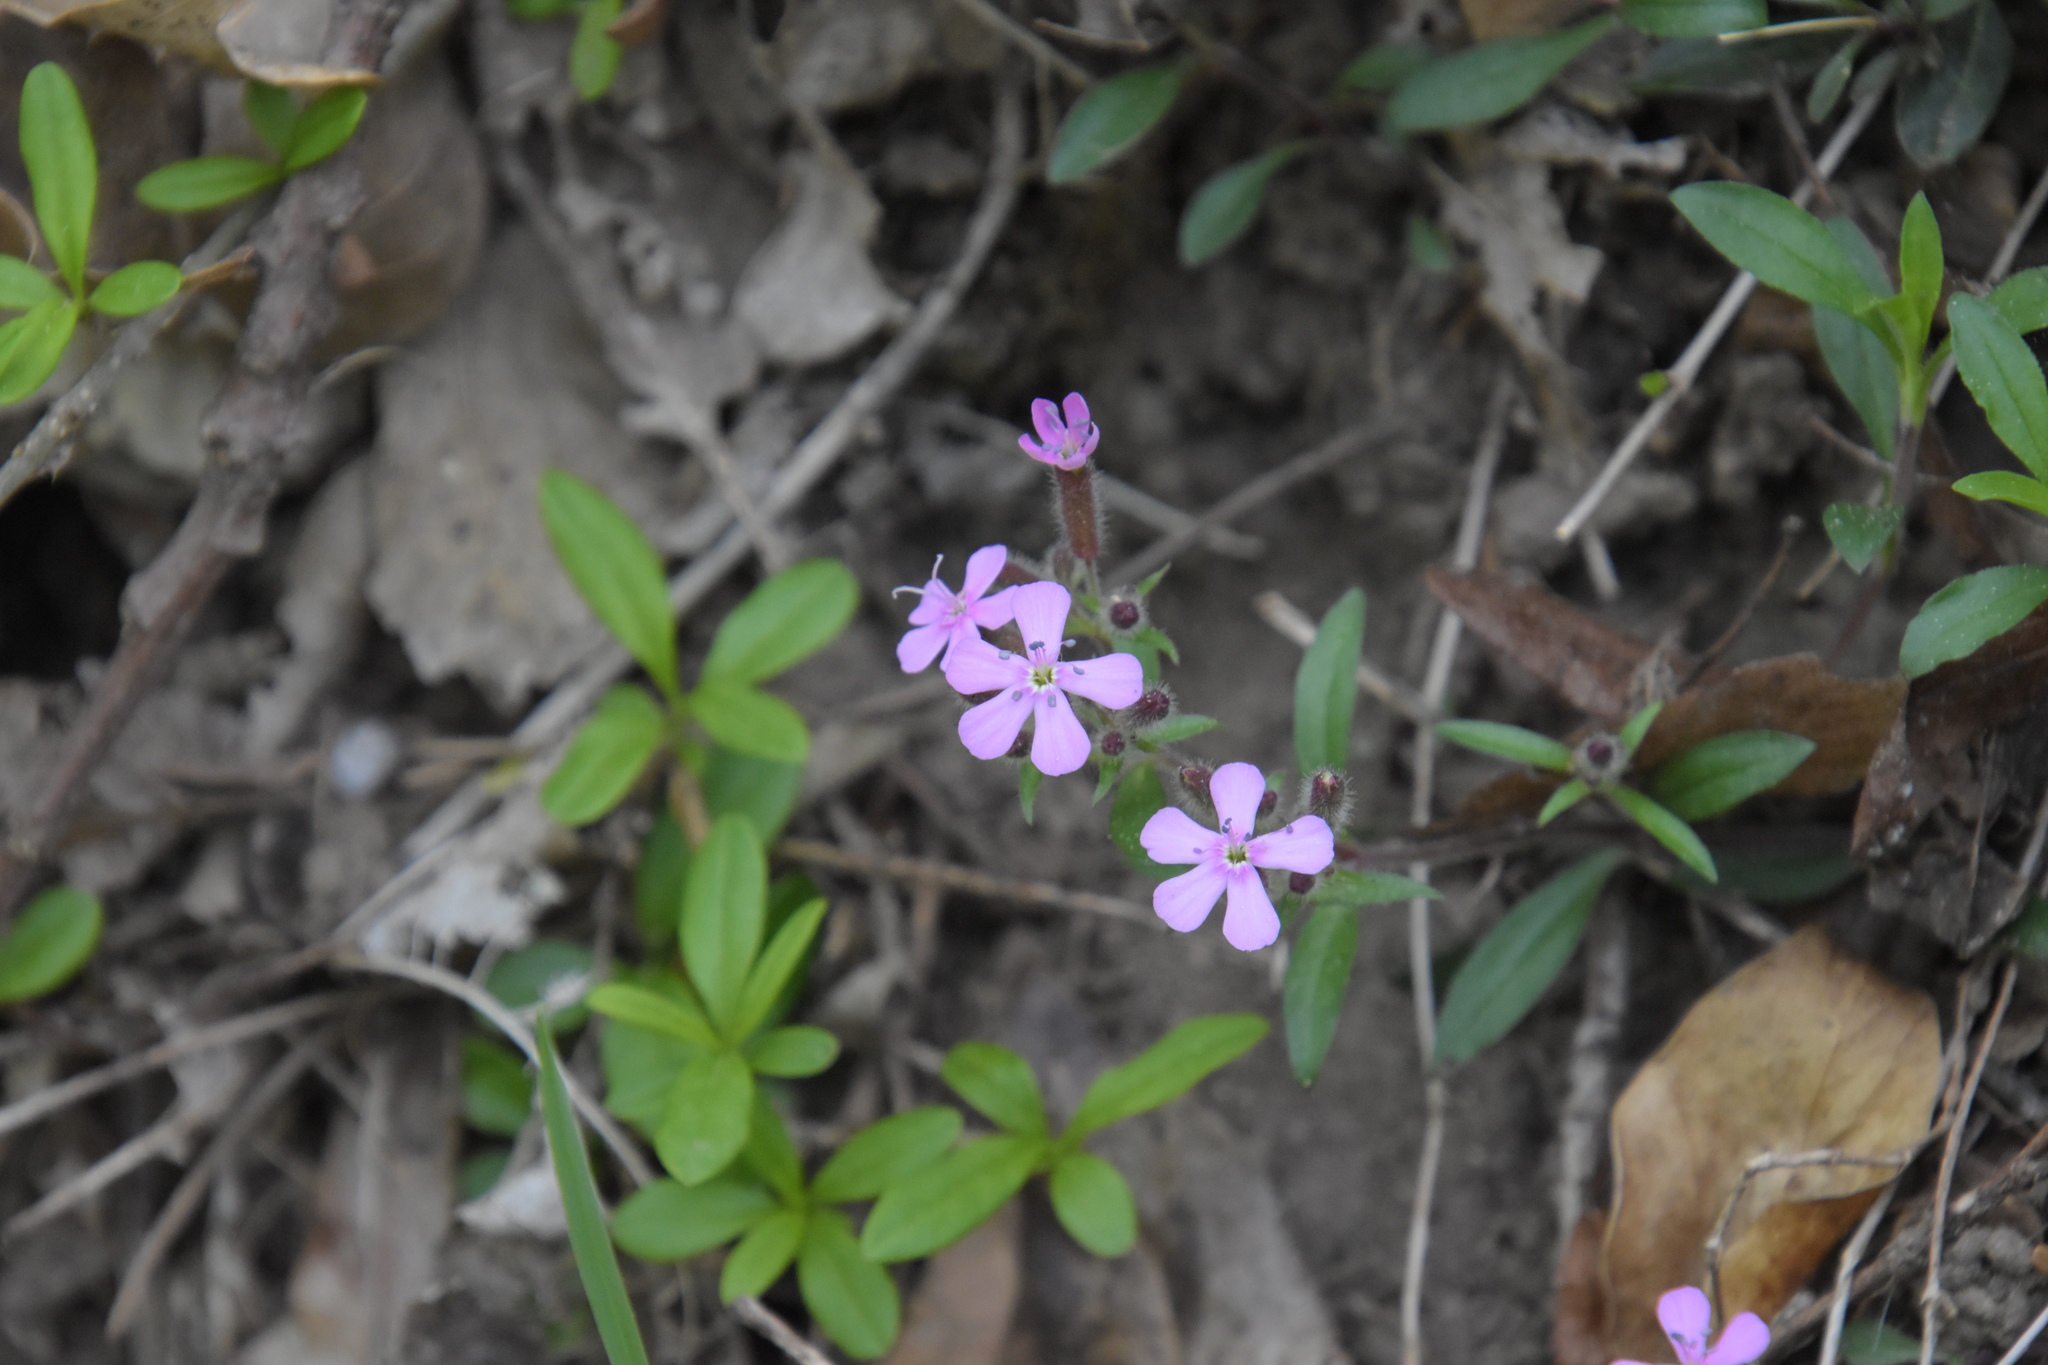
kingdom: Plantae
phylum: Tracheophyta
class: Magnoliopsida
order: Caryophyllales
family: Caryophyllaceae
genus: Saponaria
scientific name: Saponaria ocymoides
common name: Rock soapwort
